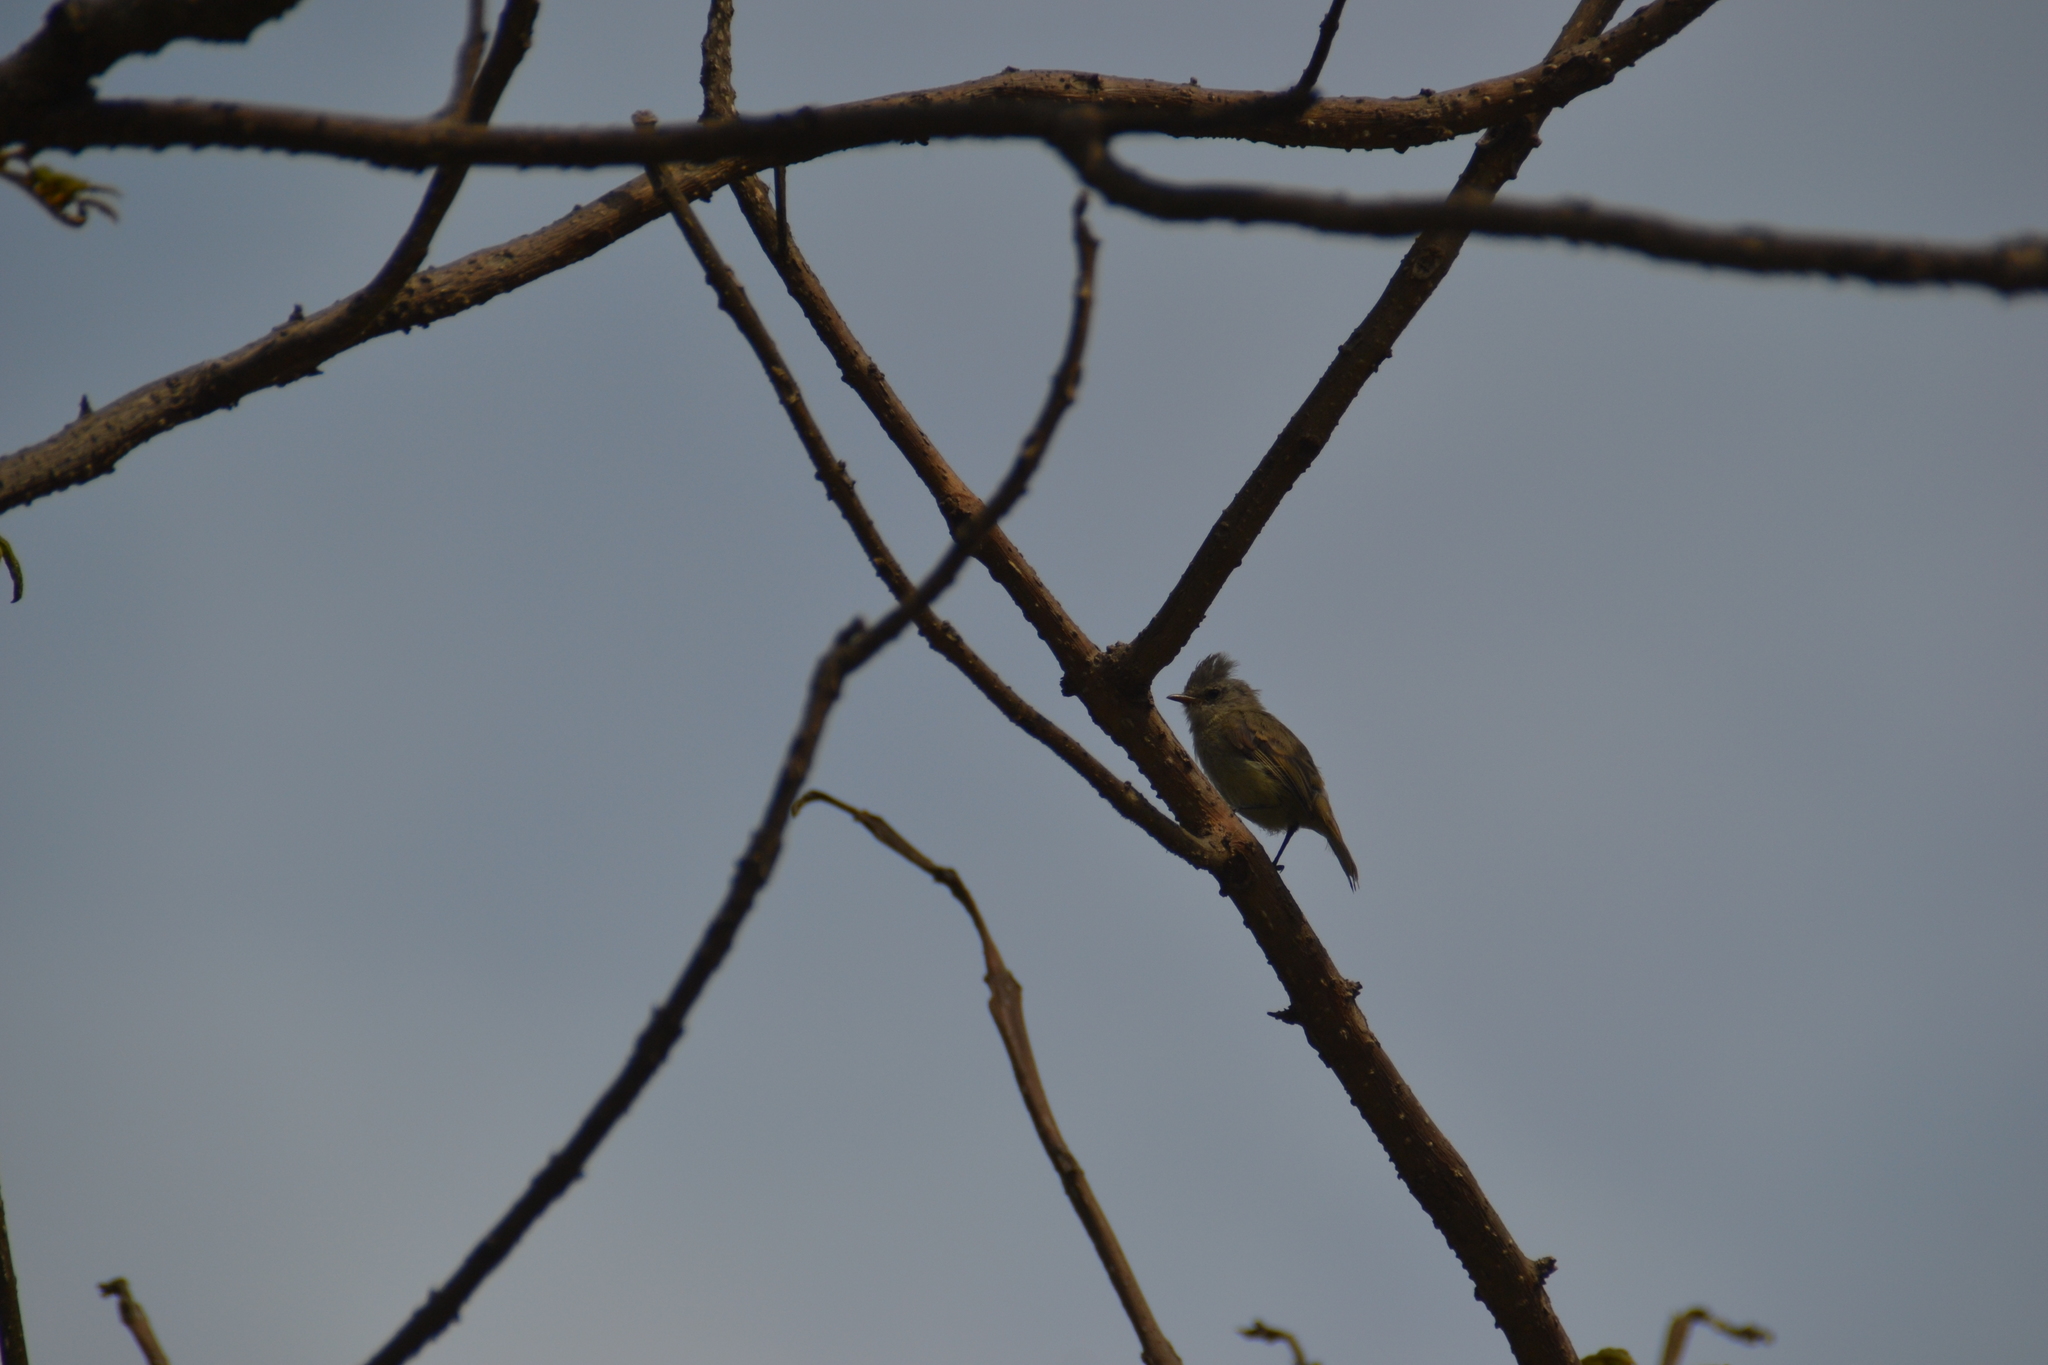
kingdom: Animalia
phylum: Chordata
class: Aves
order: Passeriformes
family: Tyrannidae
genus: Camptostoma
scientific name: Camptostoma obsoletum
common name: Southern beardless-tyrannulet
